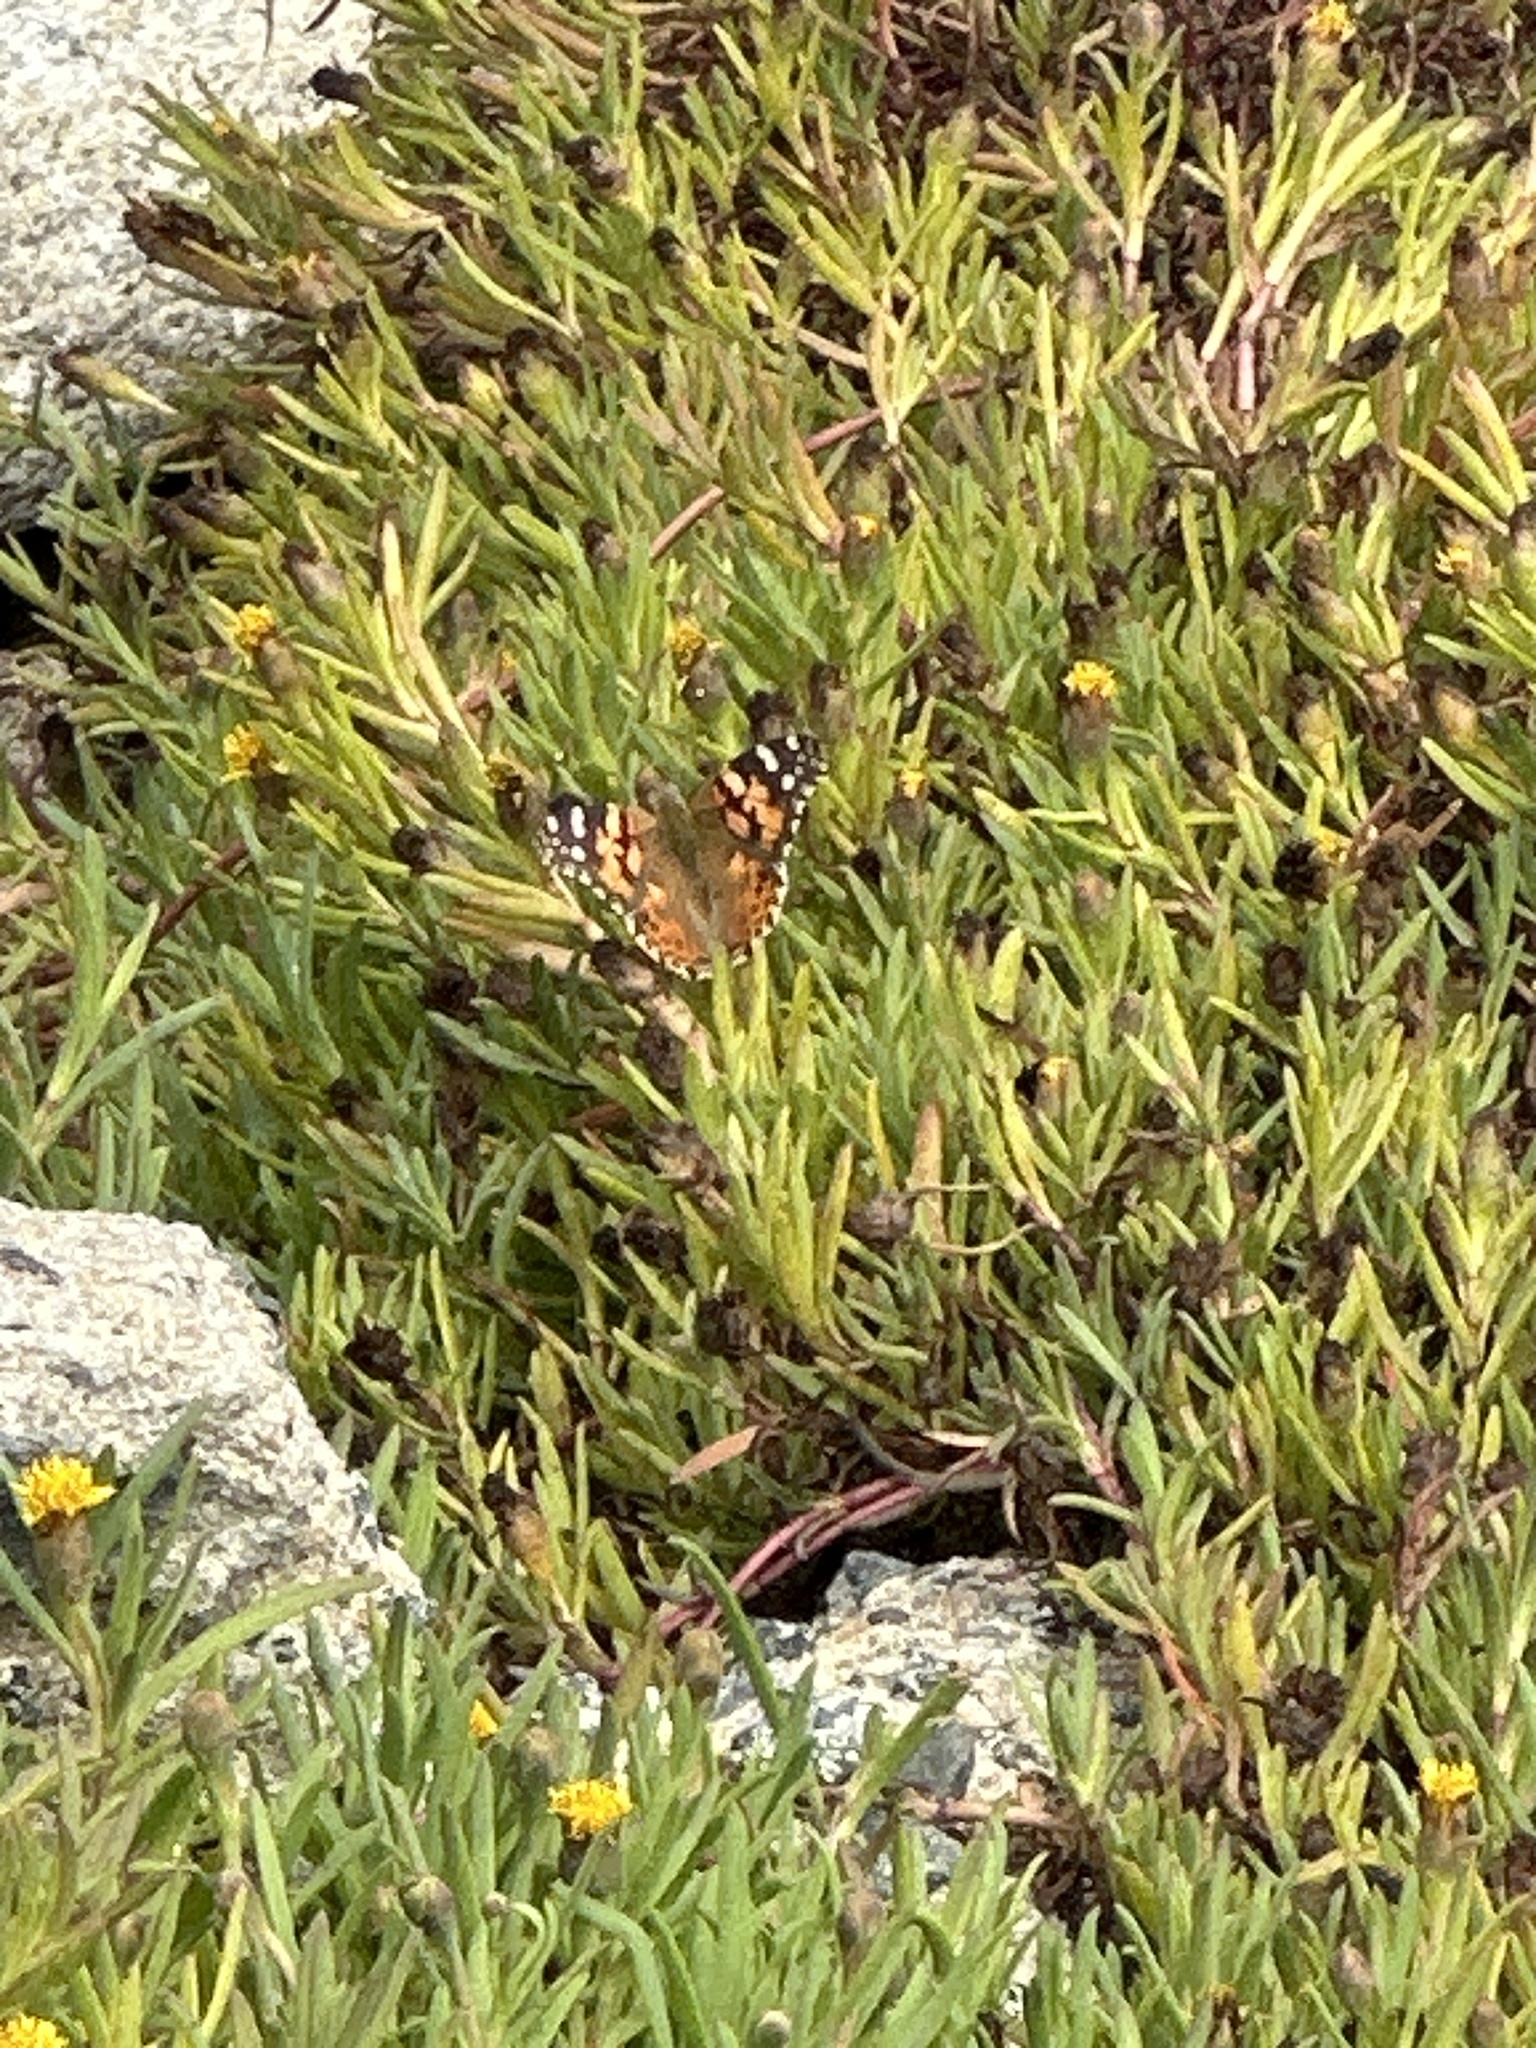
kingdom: Animalia
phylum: Arthropoda
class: Insecta
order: Lepidoptera
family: Nymphalidae
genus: Vanessa
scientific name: Vanessa cardui
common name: Painted lady
